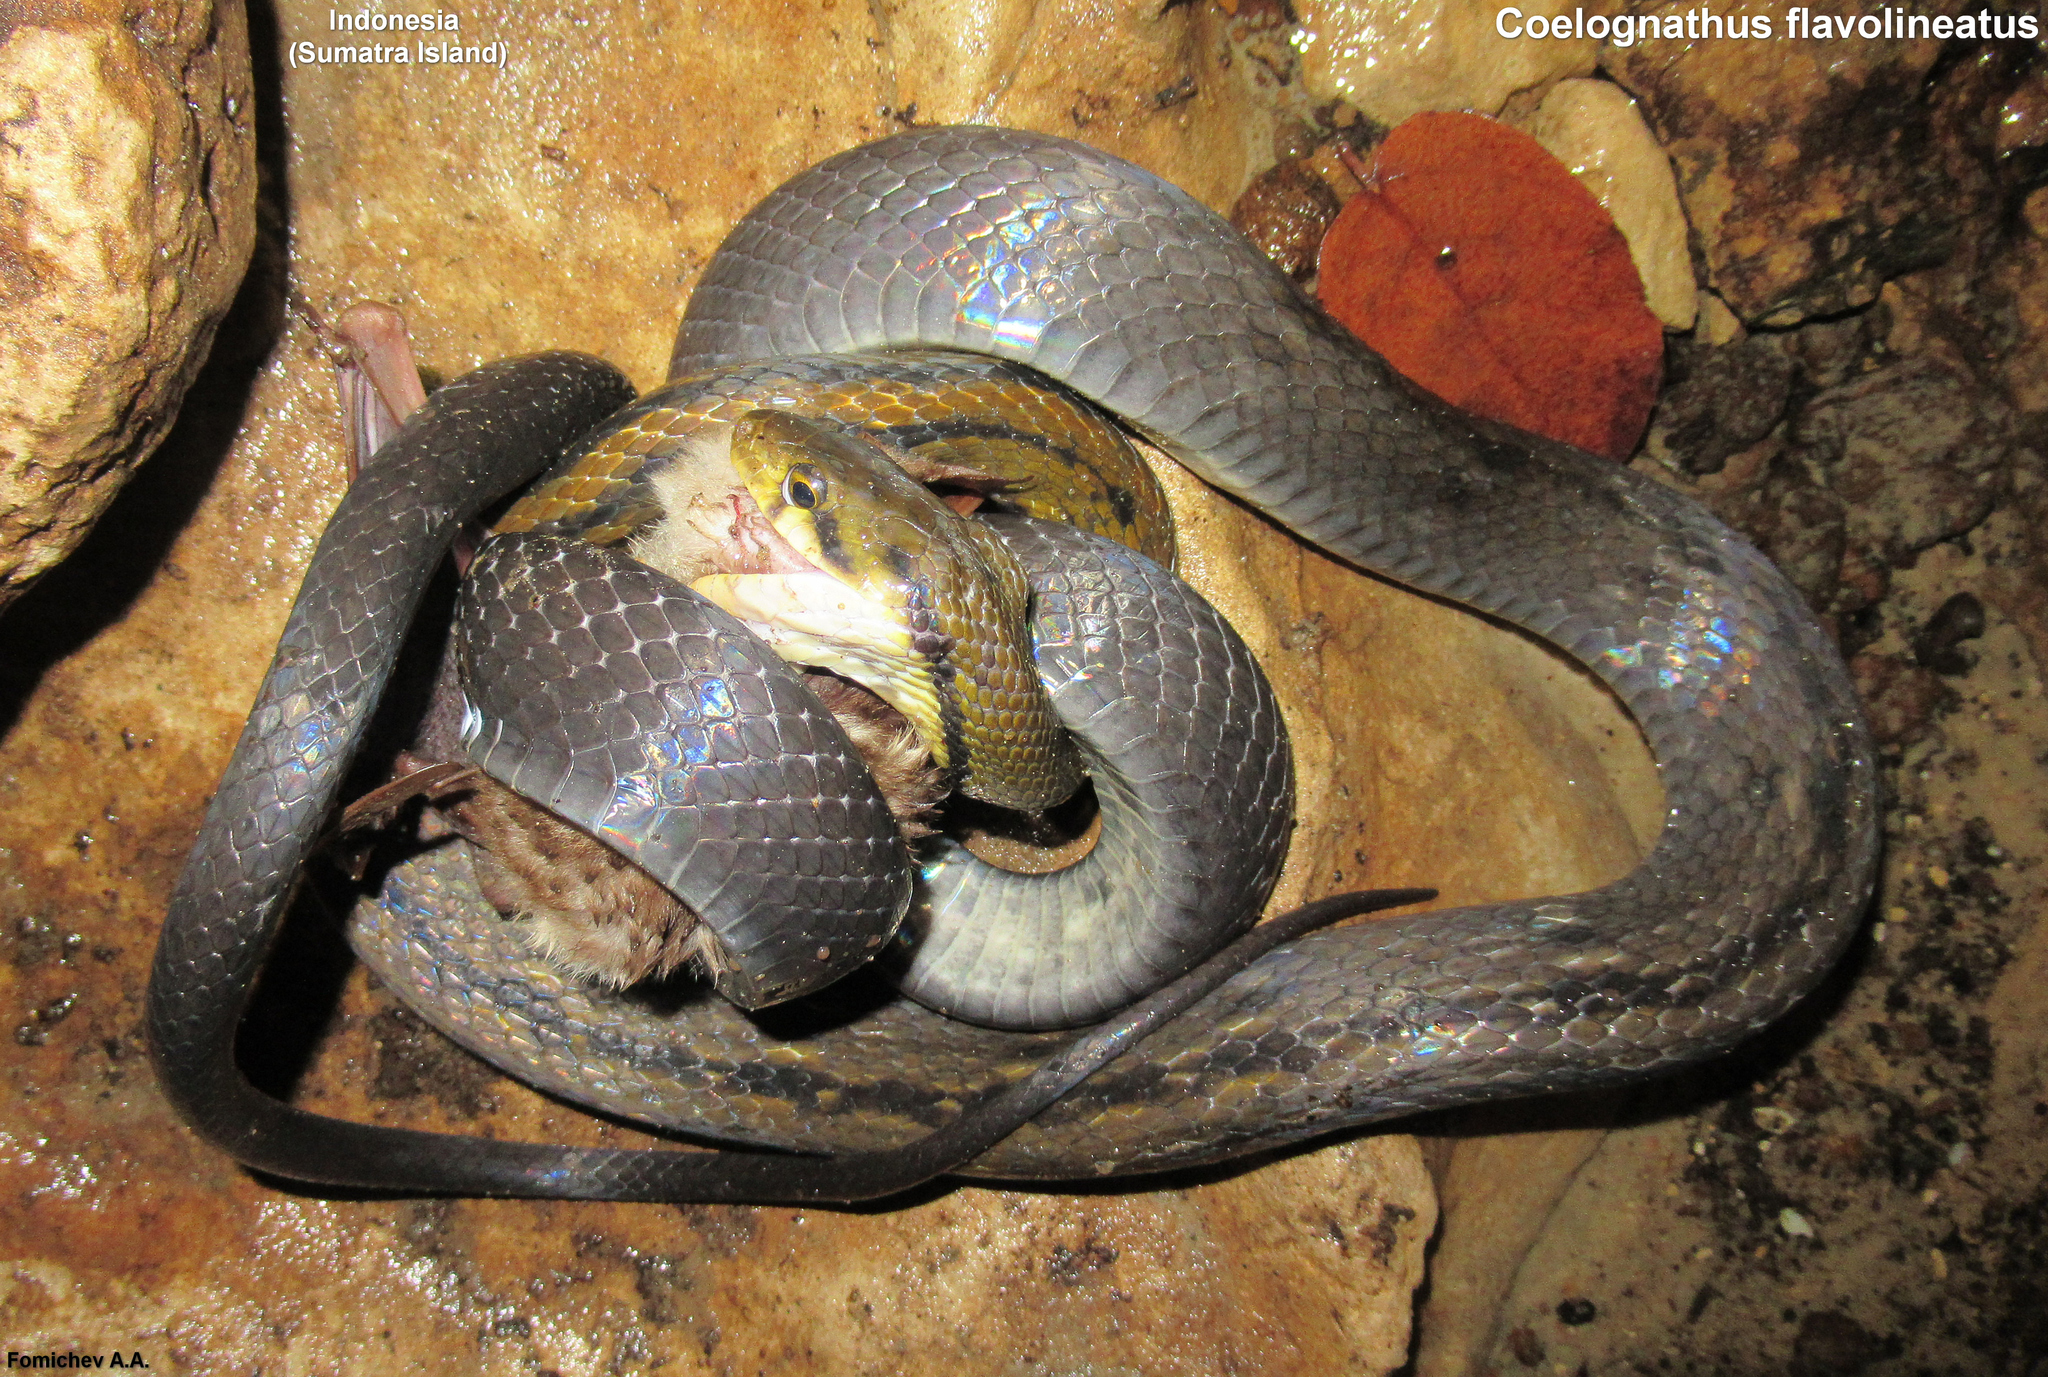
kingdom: Animalia
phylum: Chordata
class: Squamata
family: Colubridae
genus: Coelognathus
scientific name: Coelognathus flavolineatus
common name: Black copper rat snake
